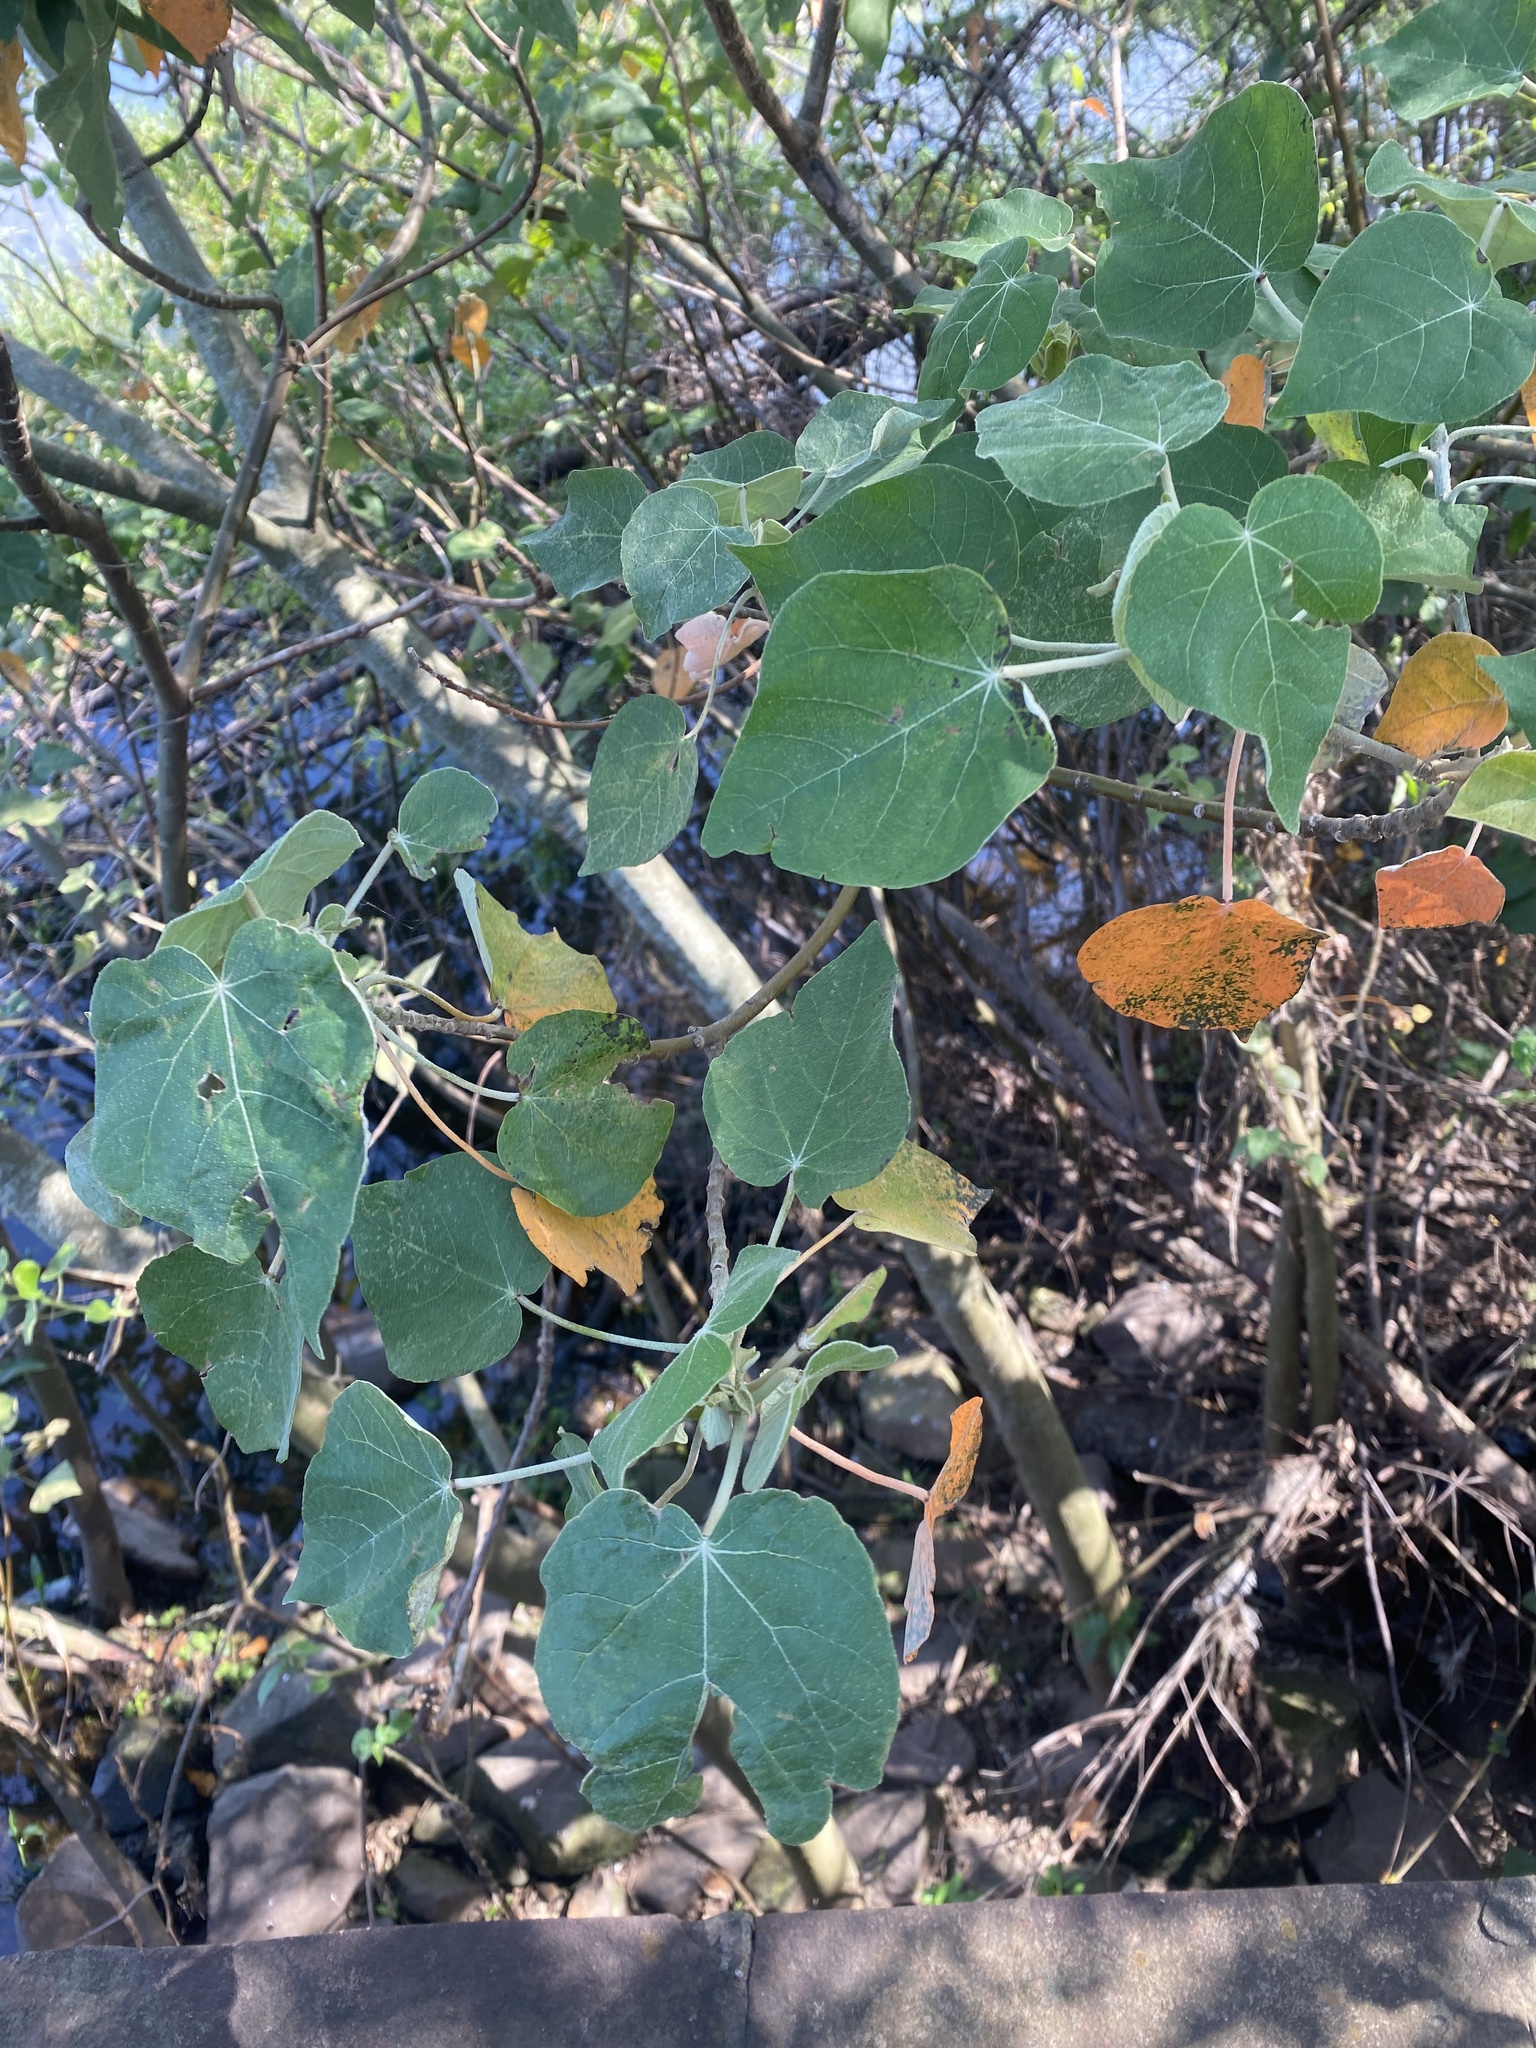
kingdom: Plantae
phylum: Tracheophyta
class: Magnoliopsida
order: Malpighiales
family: Euphorbiaceae
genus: Croton
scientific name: Croton urucurana
